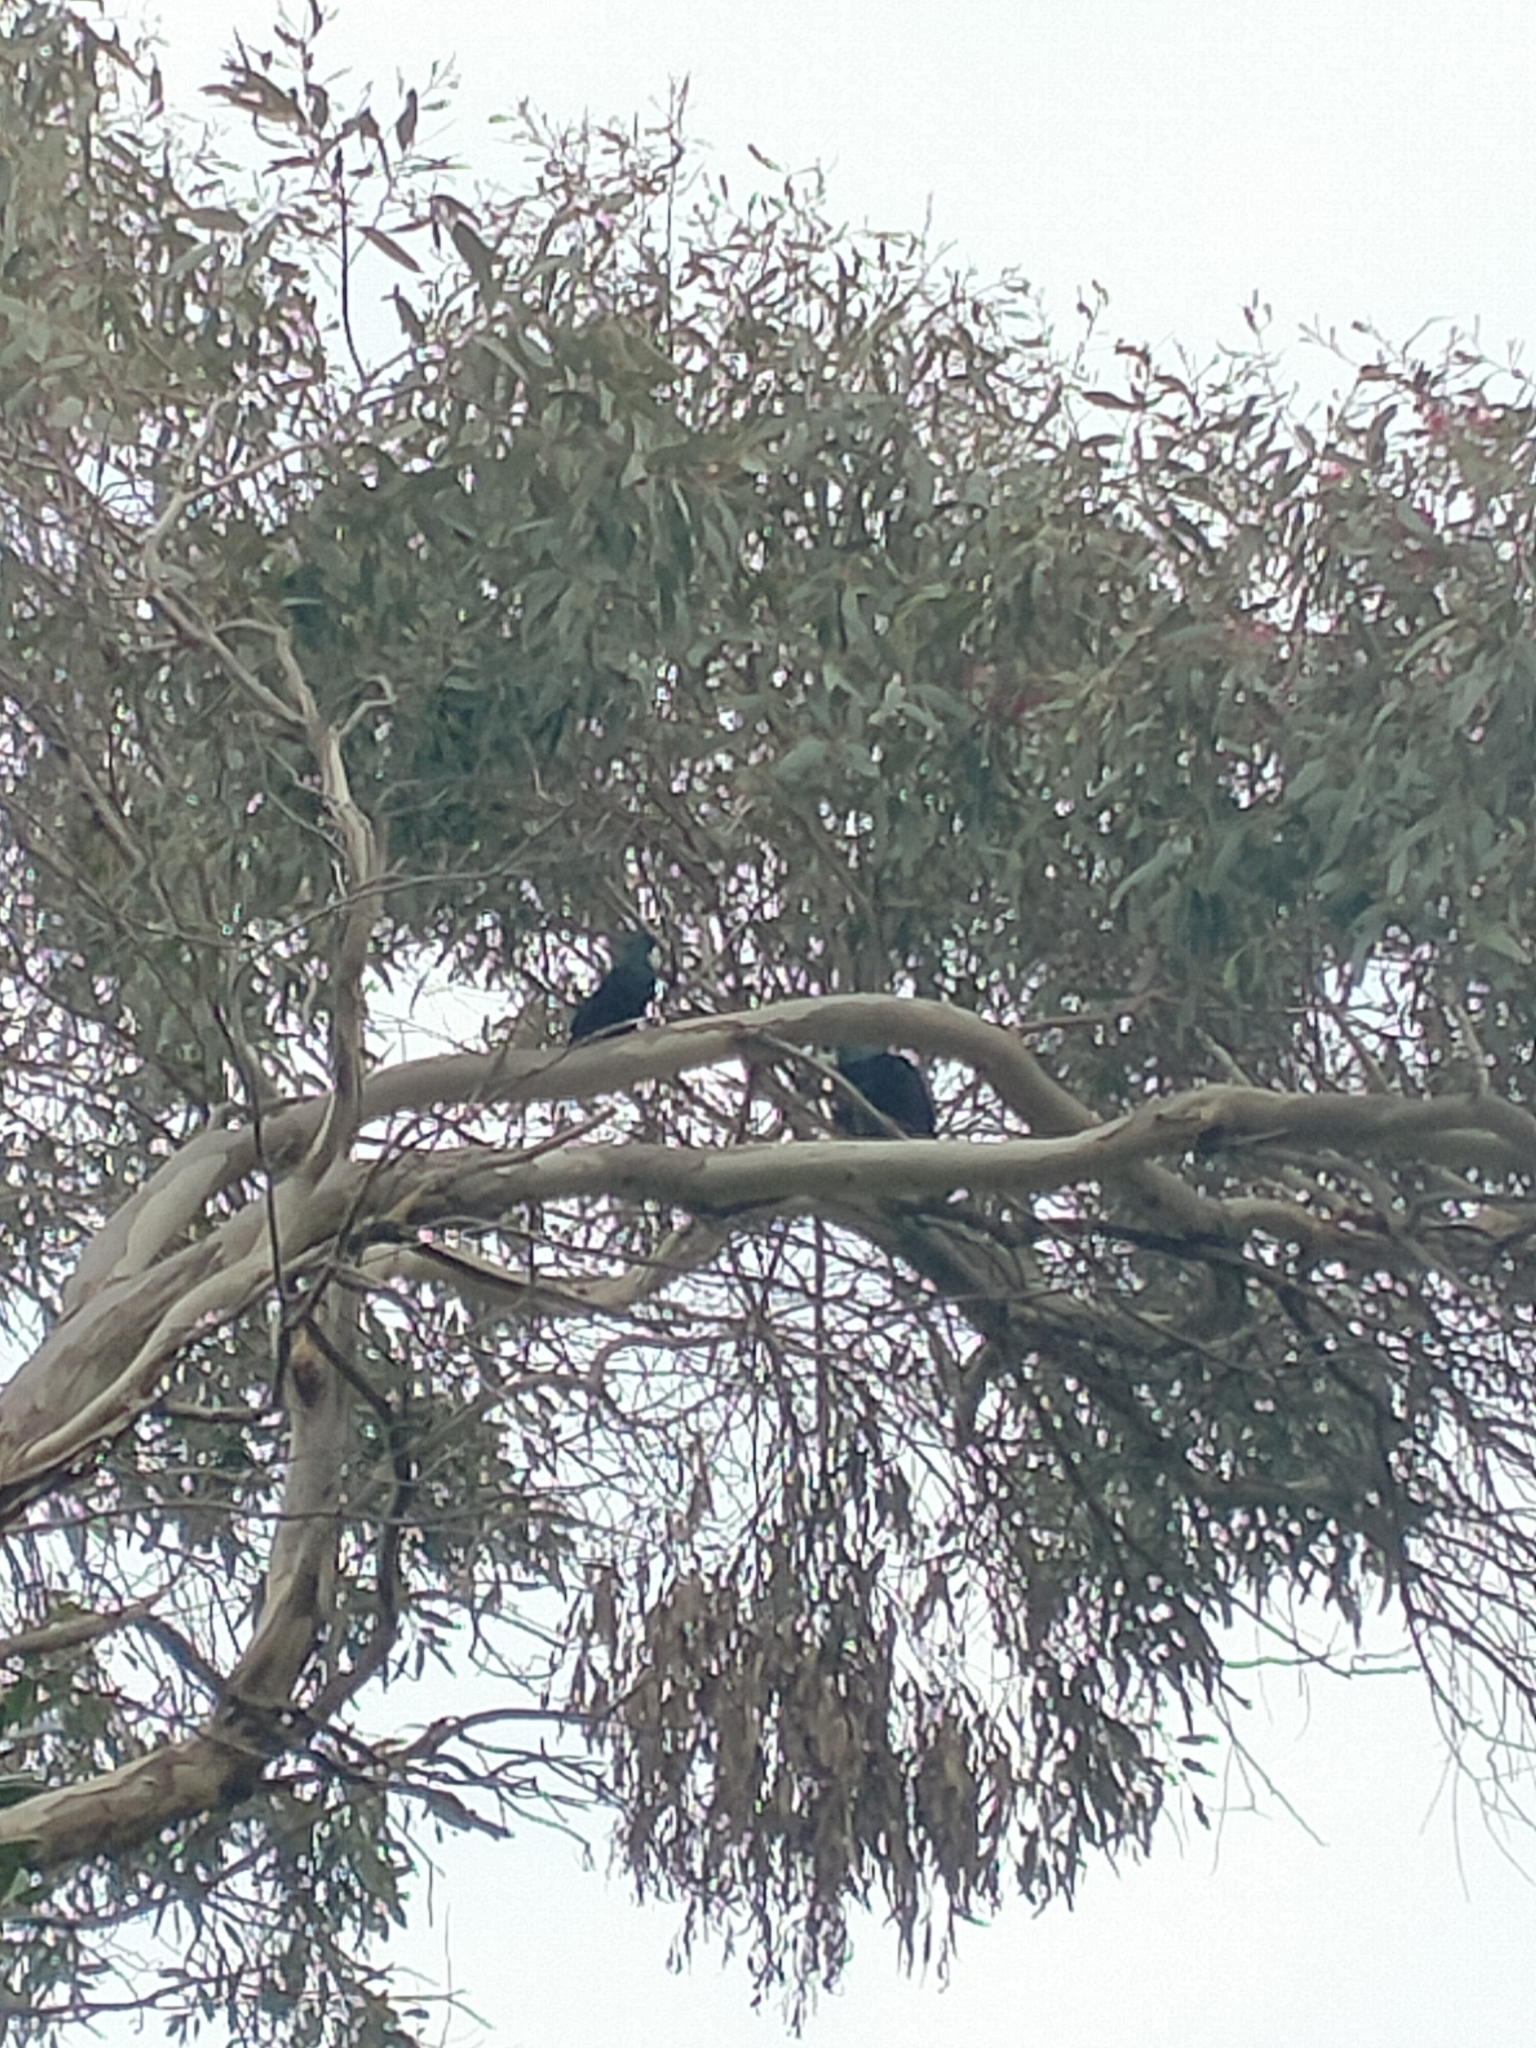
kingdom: Animalia
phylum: Chordata
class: Aves
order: Passeriformes
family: Meliphagidae
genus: Prosthemadera
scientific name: Prosthemadera novaeseelandiae
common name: Tui
